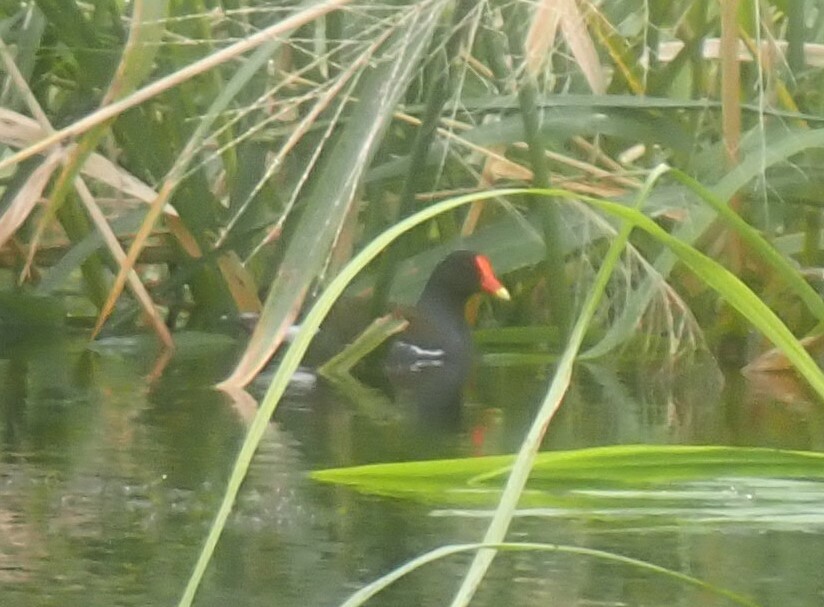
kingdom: Animalia
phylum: Chordata
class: Aves
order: Gruiformes
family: Rallidae
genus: Gallinula
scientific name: Gallinula chloropus
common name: Common moorhen
